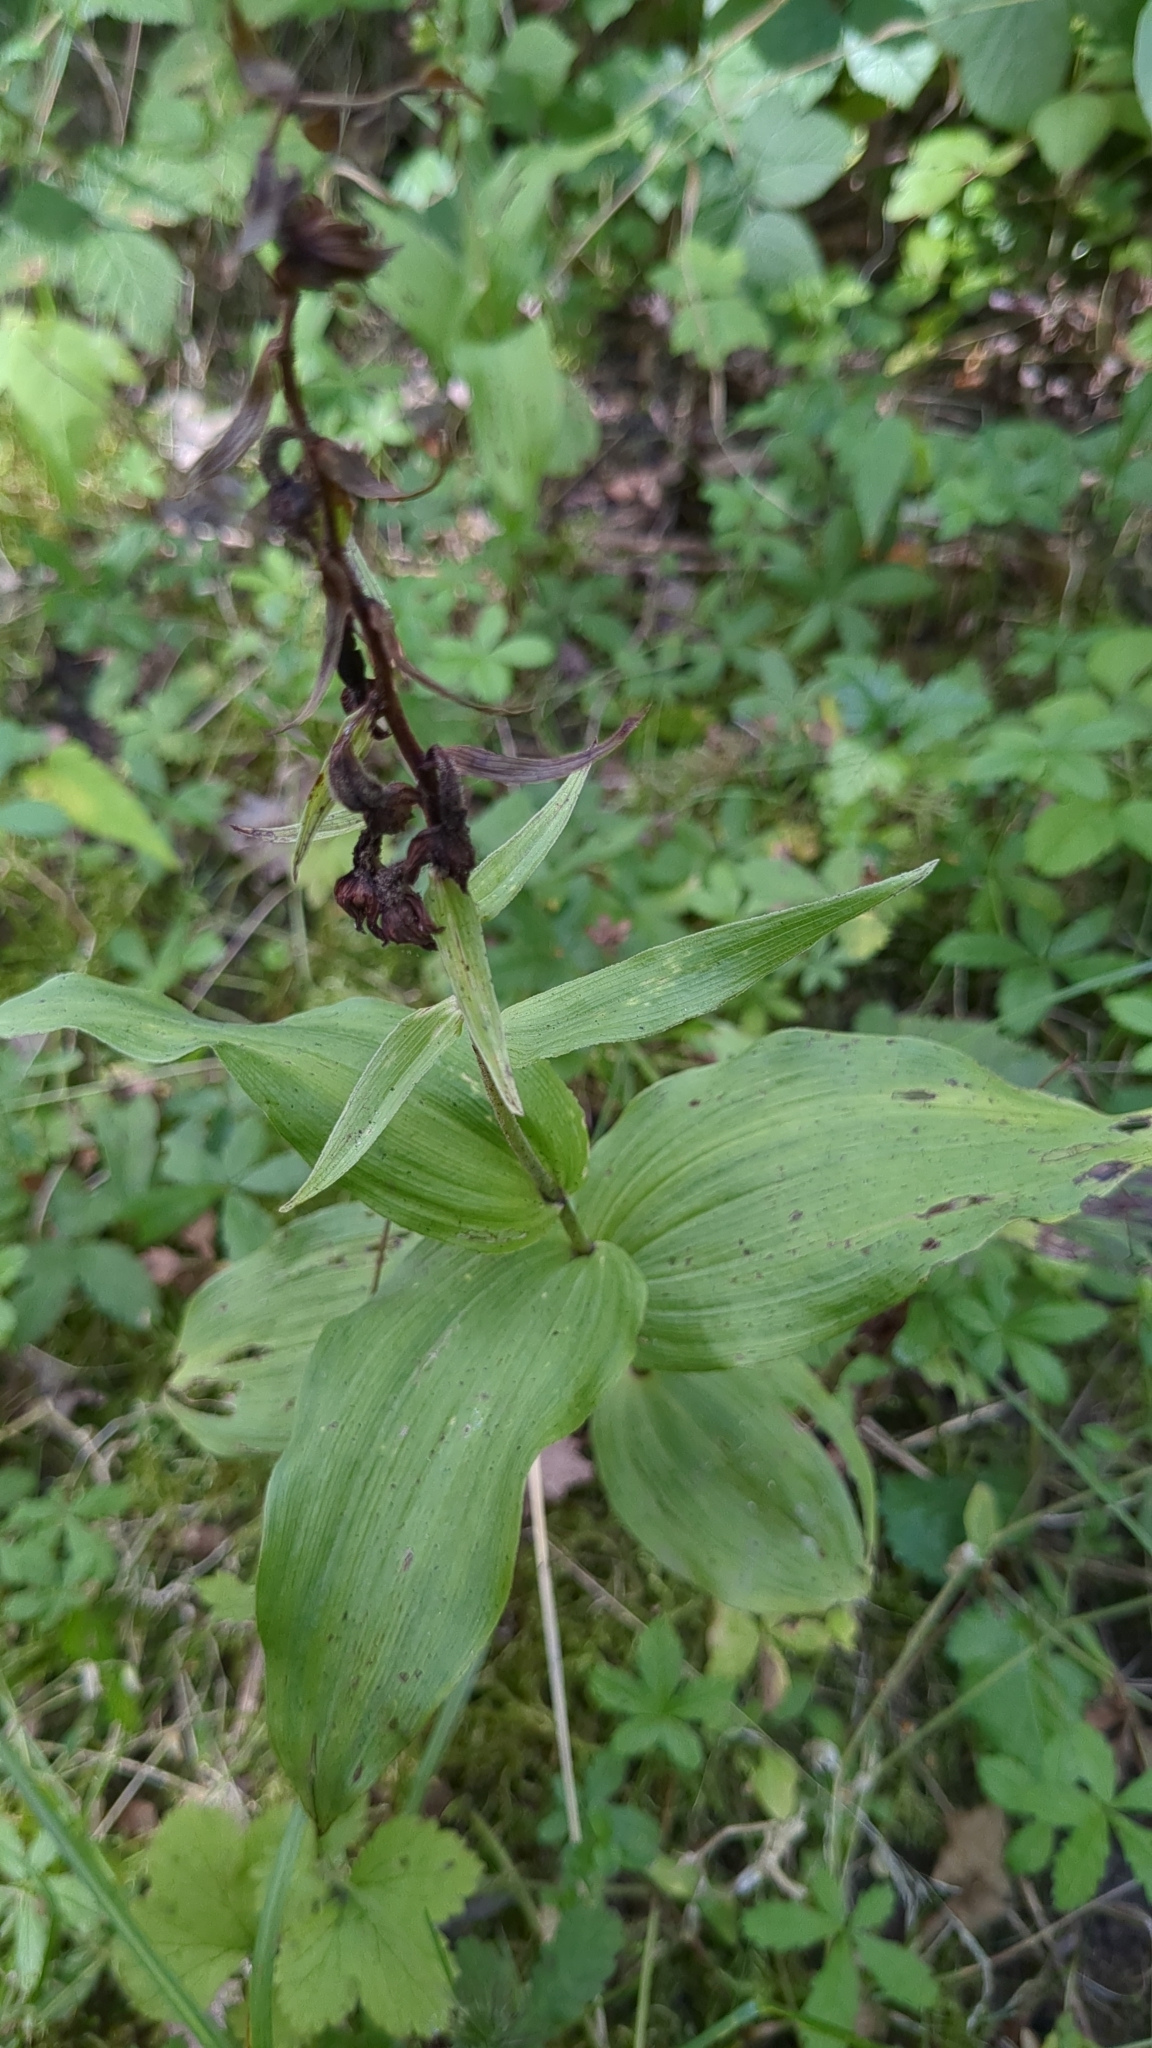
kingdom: Plantae
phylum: Tracheophyta
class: Liliopsida
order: Asparagales
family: Orchidaceae
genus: Epipactis
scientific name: Epipactis helleborine
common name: Broad-leaved helleborine
